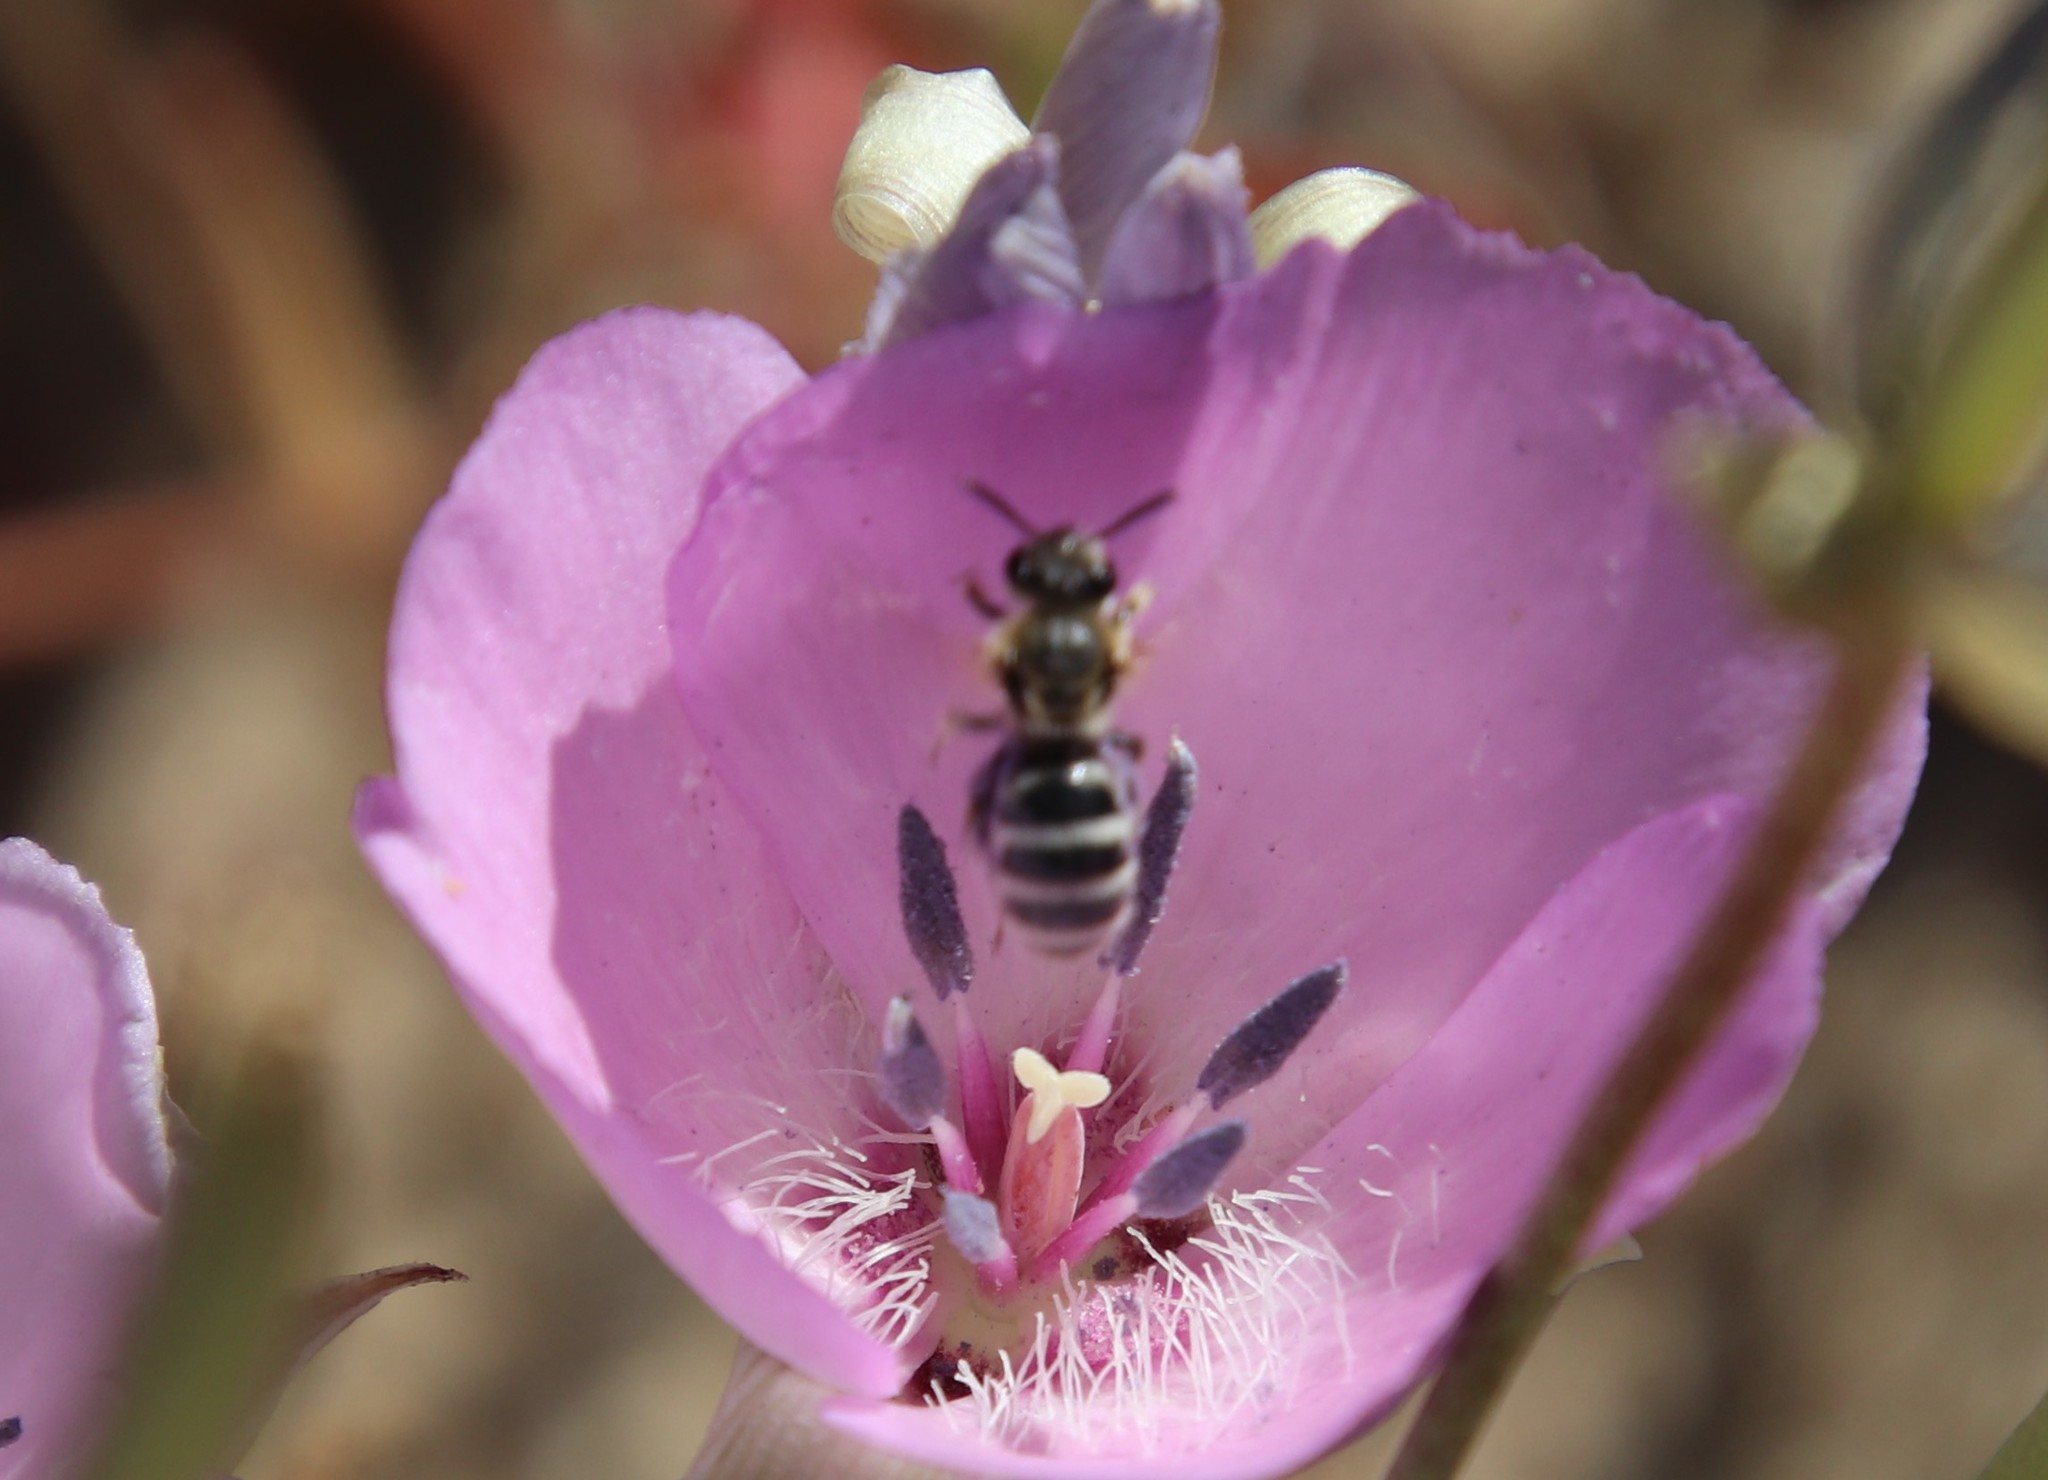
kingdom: Animalia
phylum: Arthropoda
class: Insecta
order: Hymenoptera
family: Halictidae
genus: Lasioglossum
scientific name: Lasioglossum sisymbrii
